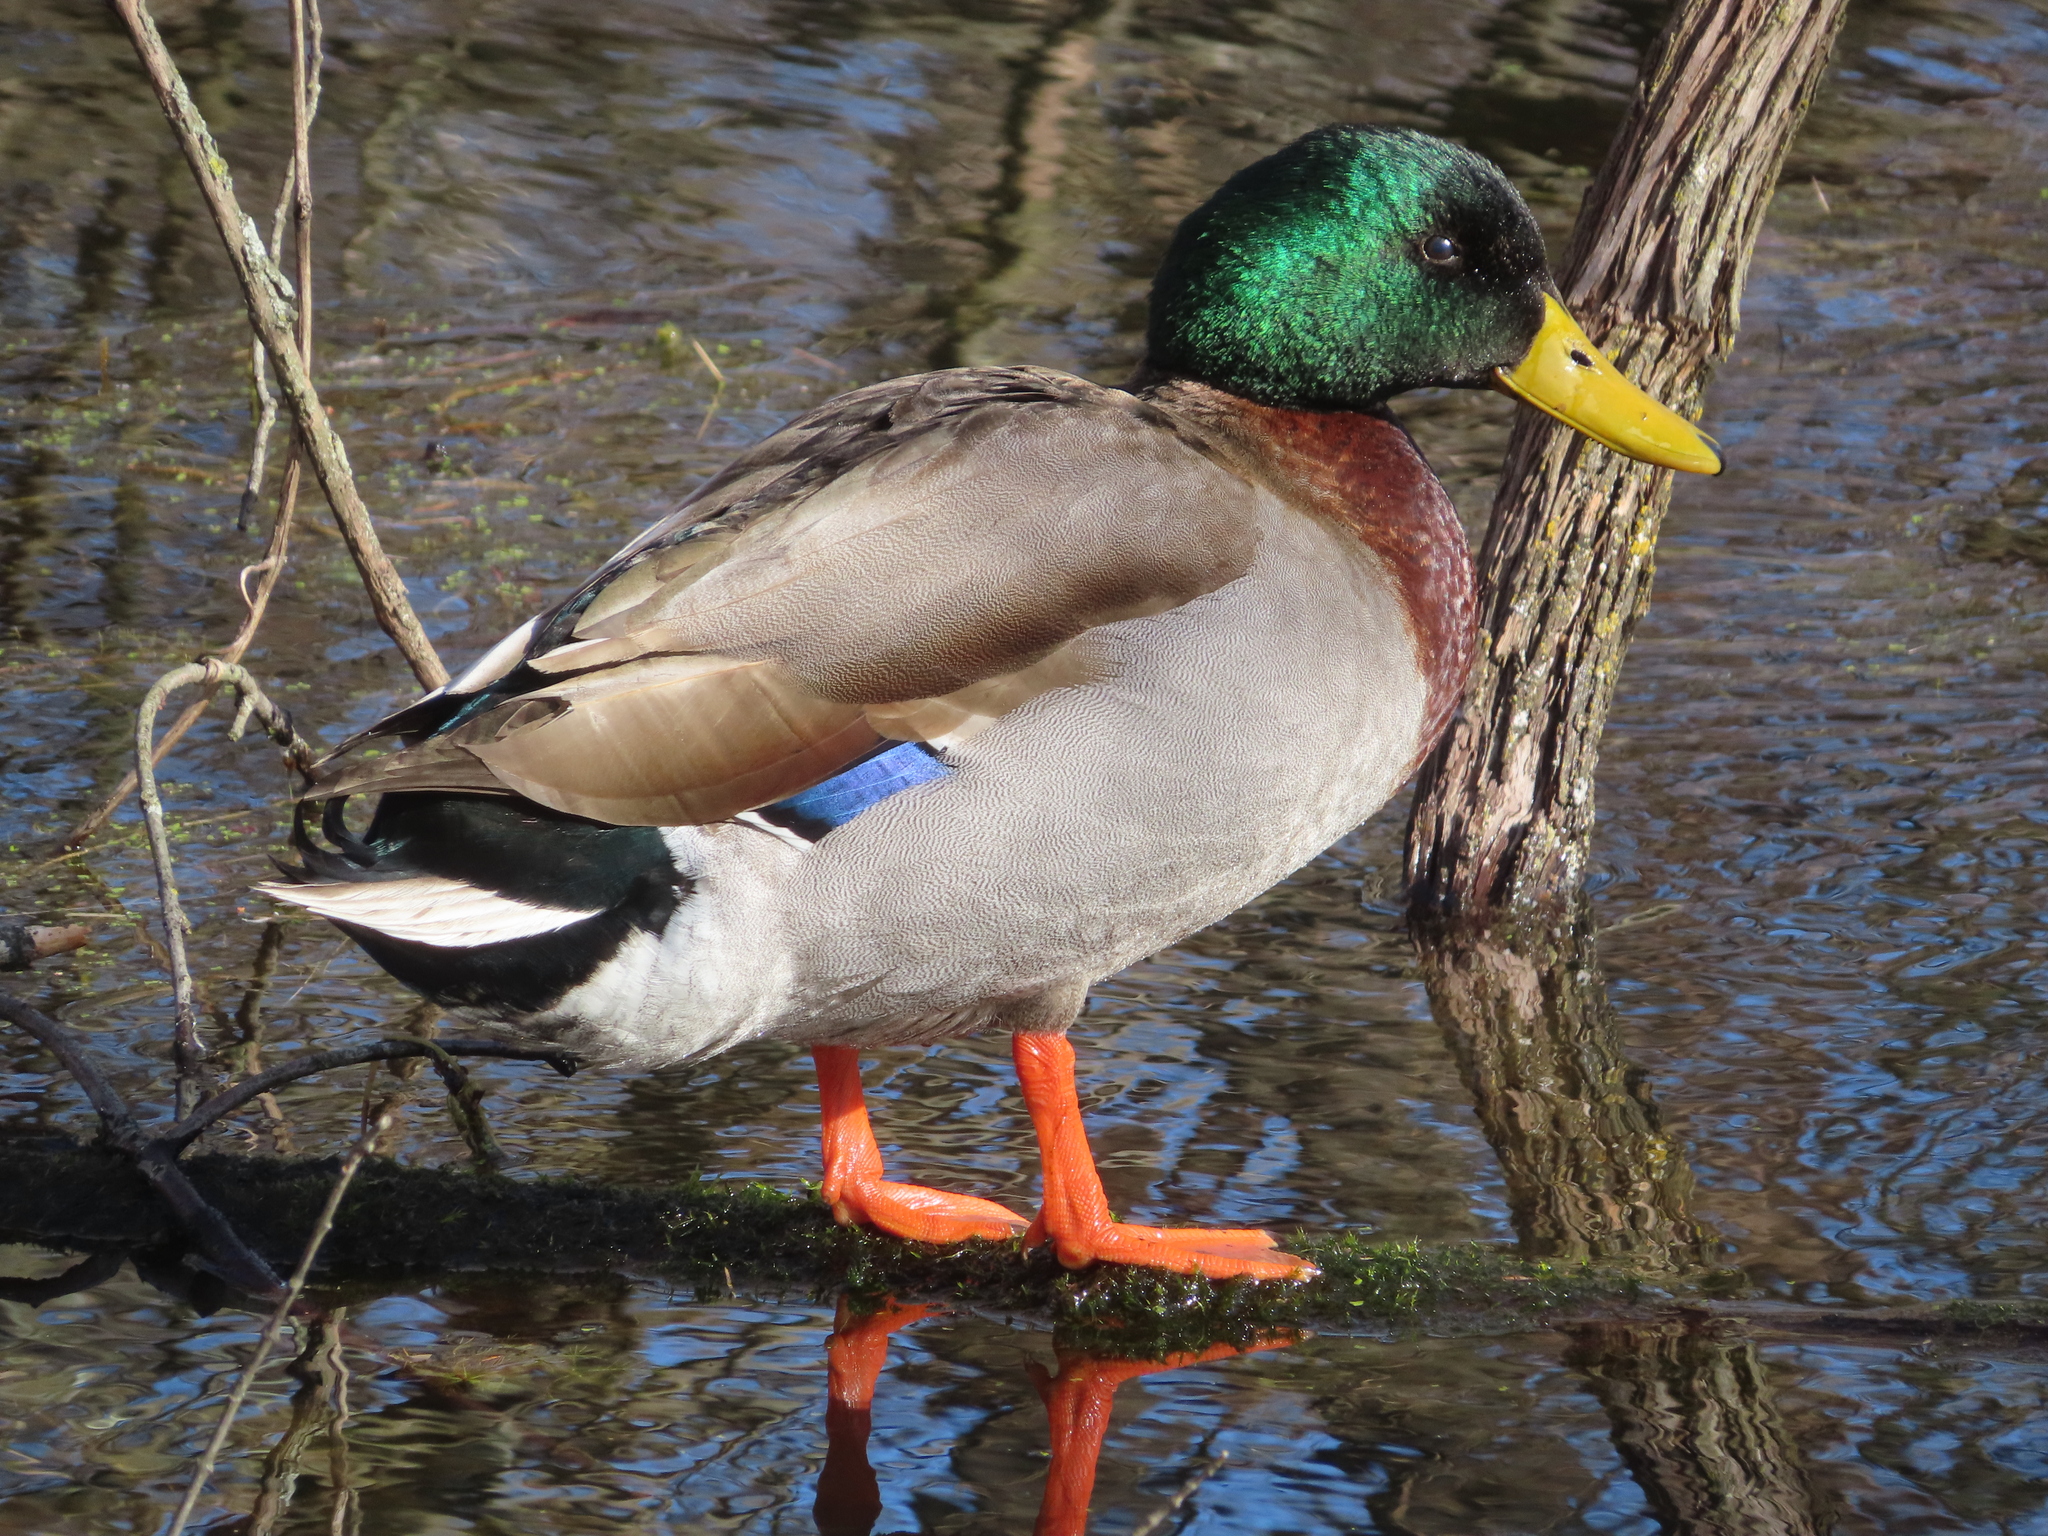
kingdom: Animalia
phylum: Chordata
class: Aves
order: Anseriformes
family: Anatidae
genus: Anas
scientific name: Anas platyrhynchos
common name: Mallard
